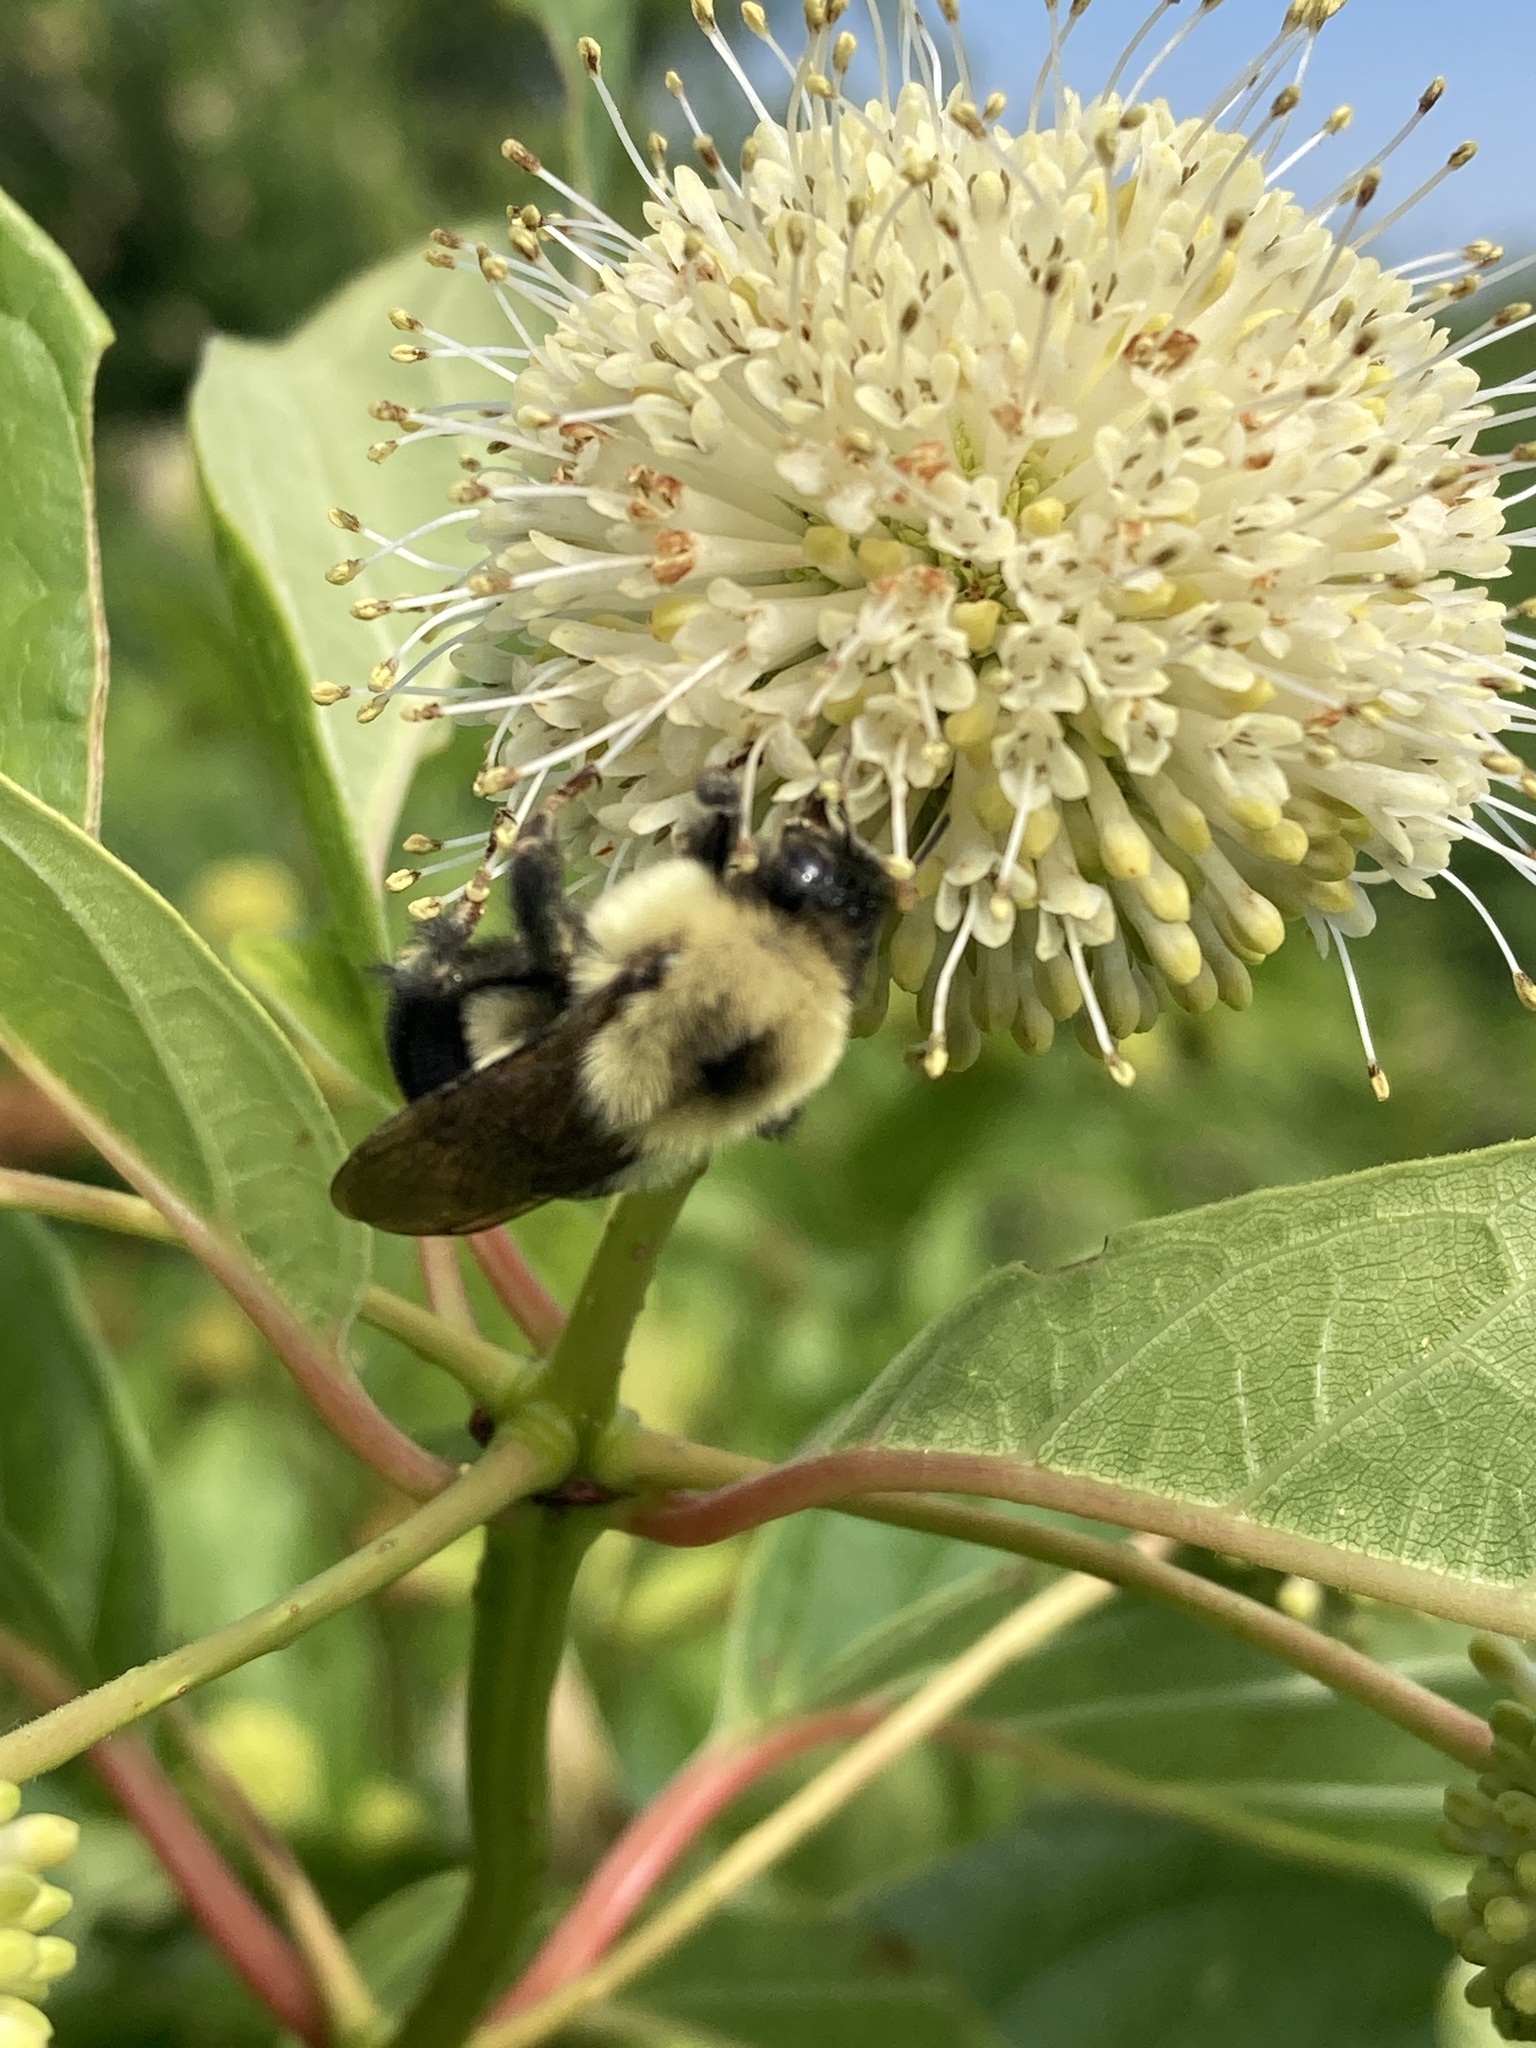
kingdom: Animalia
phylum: Arthropoda
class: Insecta
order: Hymenoptera
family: Apidae
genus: Bombus
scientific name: Bombus bimaculatus
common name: Two-spotted bumble bee
